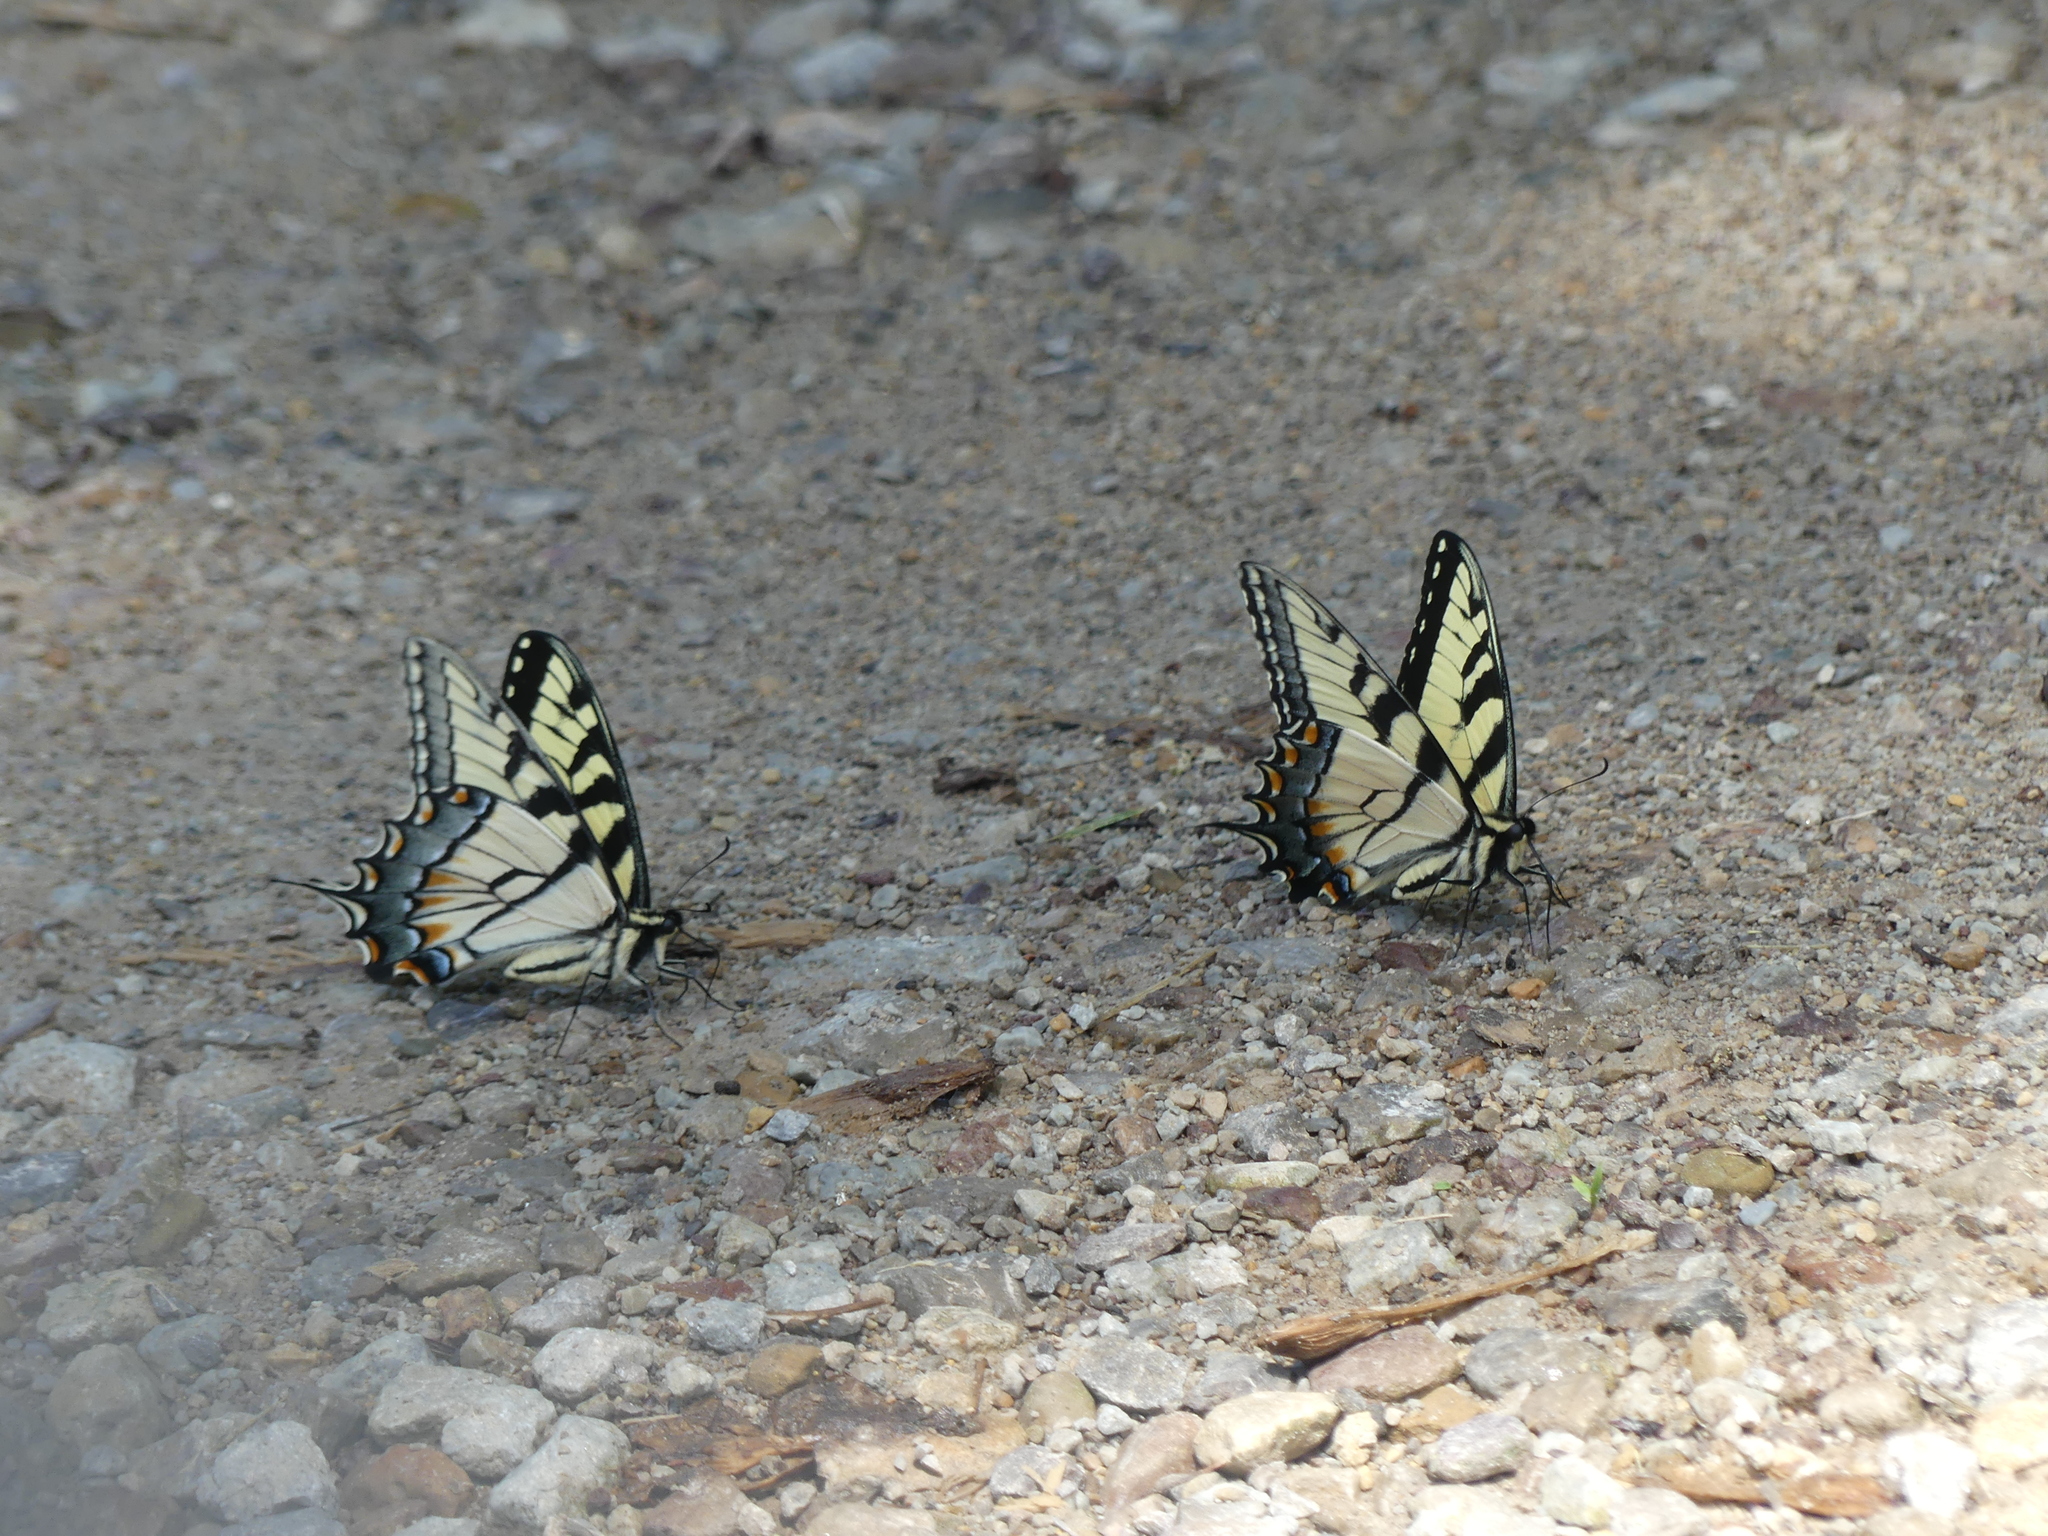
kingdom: Animalia
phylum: Arthropoda
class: Insecta
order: Lepidoptera
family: Papilionidae
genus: Papilio
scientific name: Papilio glaucus
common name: Tiger swallowtail
